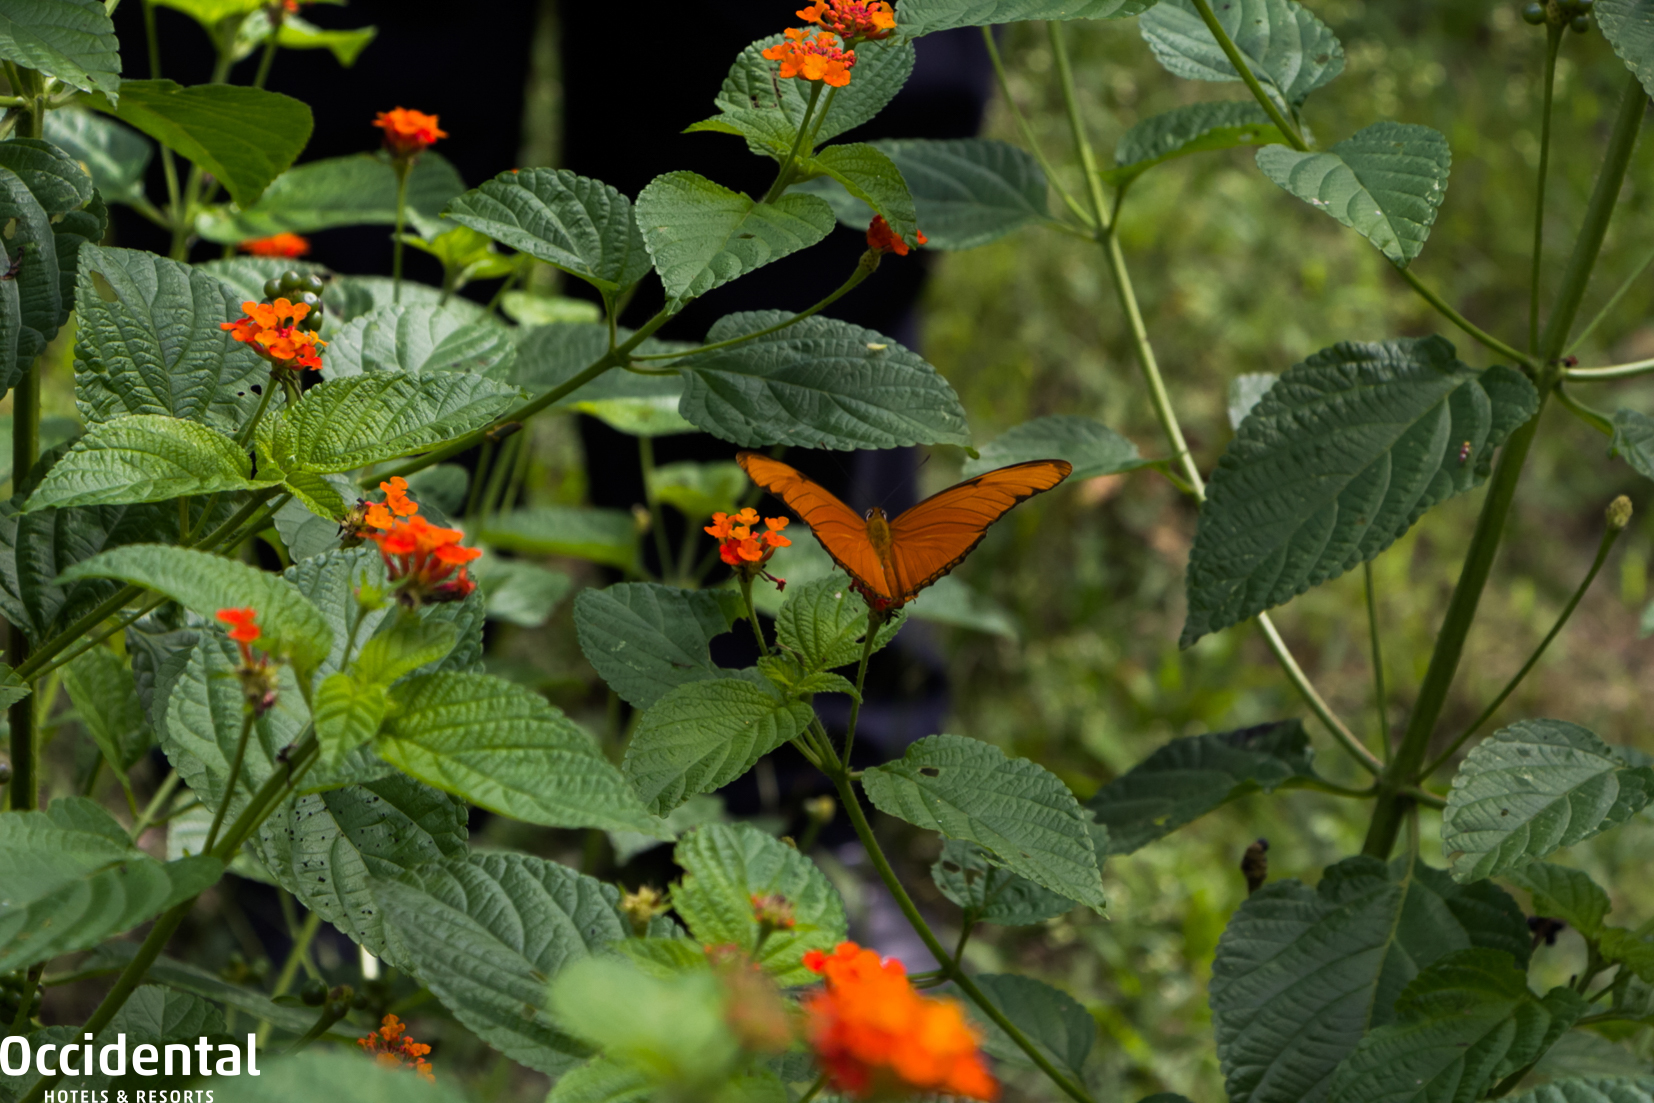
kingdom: Plantae
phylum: Tracheophyta
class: Magnoliopsida
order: Lamiales
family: Verbenaceae
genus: Lantana
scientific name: Lantana camara
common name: Lantana
